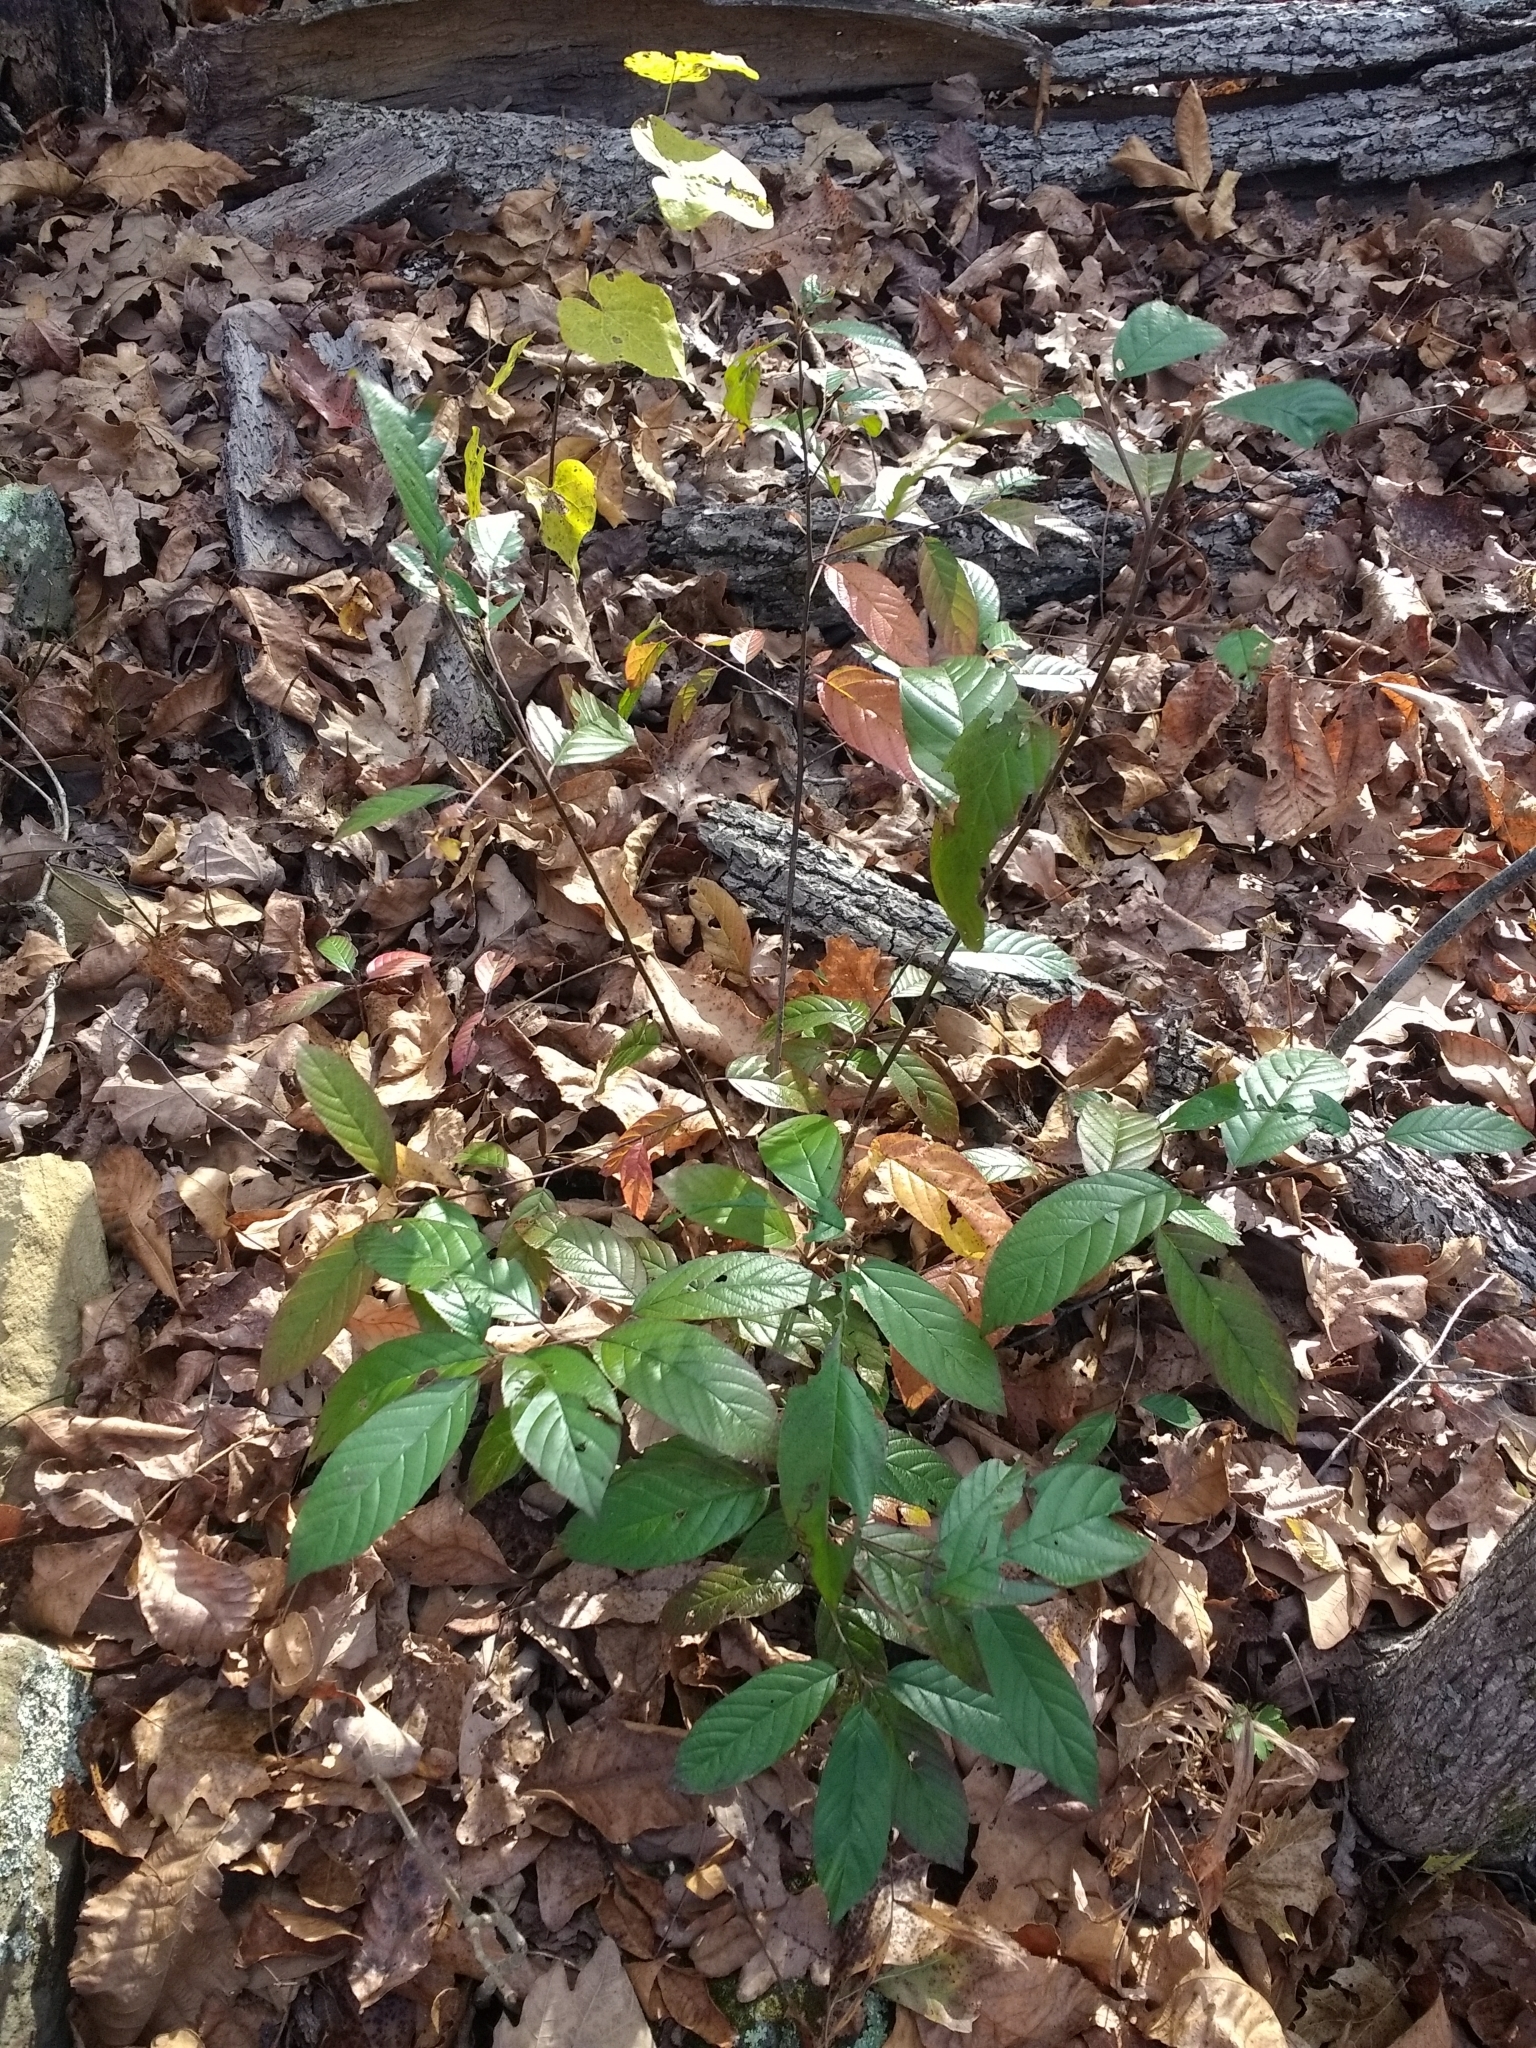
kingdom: Plantae
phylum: Tracheophyta
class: Magnoliopsida
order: Rosales
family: Rhamnaceae
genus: Frangula
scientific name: Frangula caroliniana
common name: Carolina buckthorn
